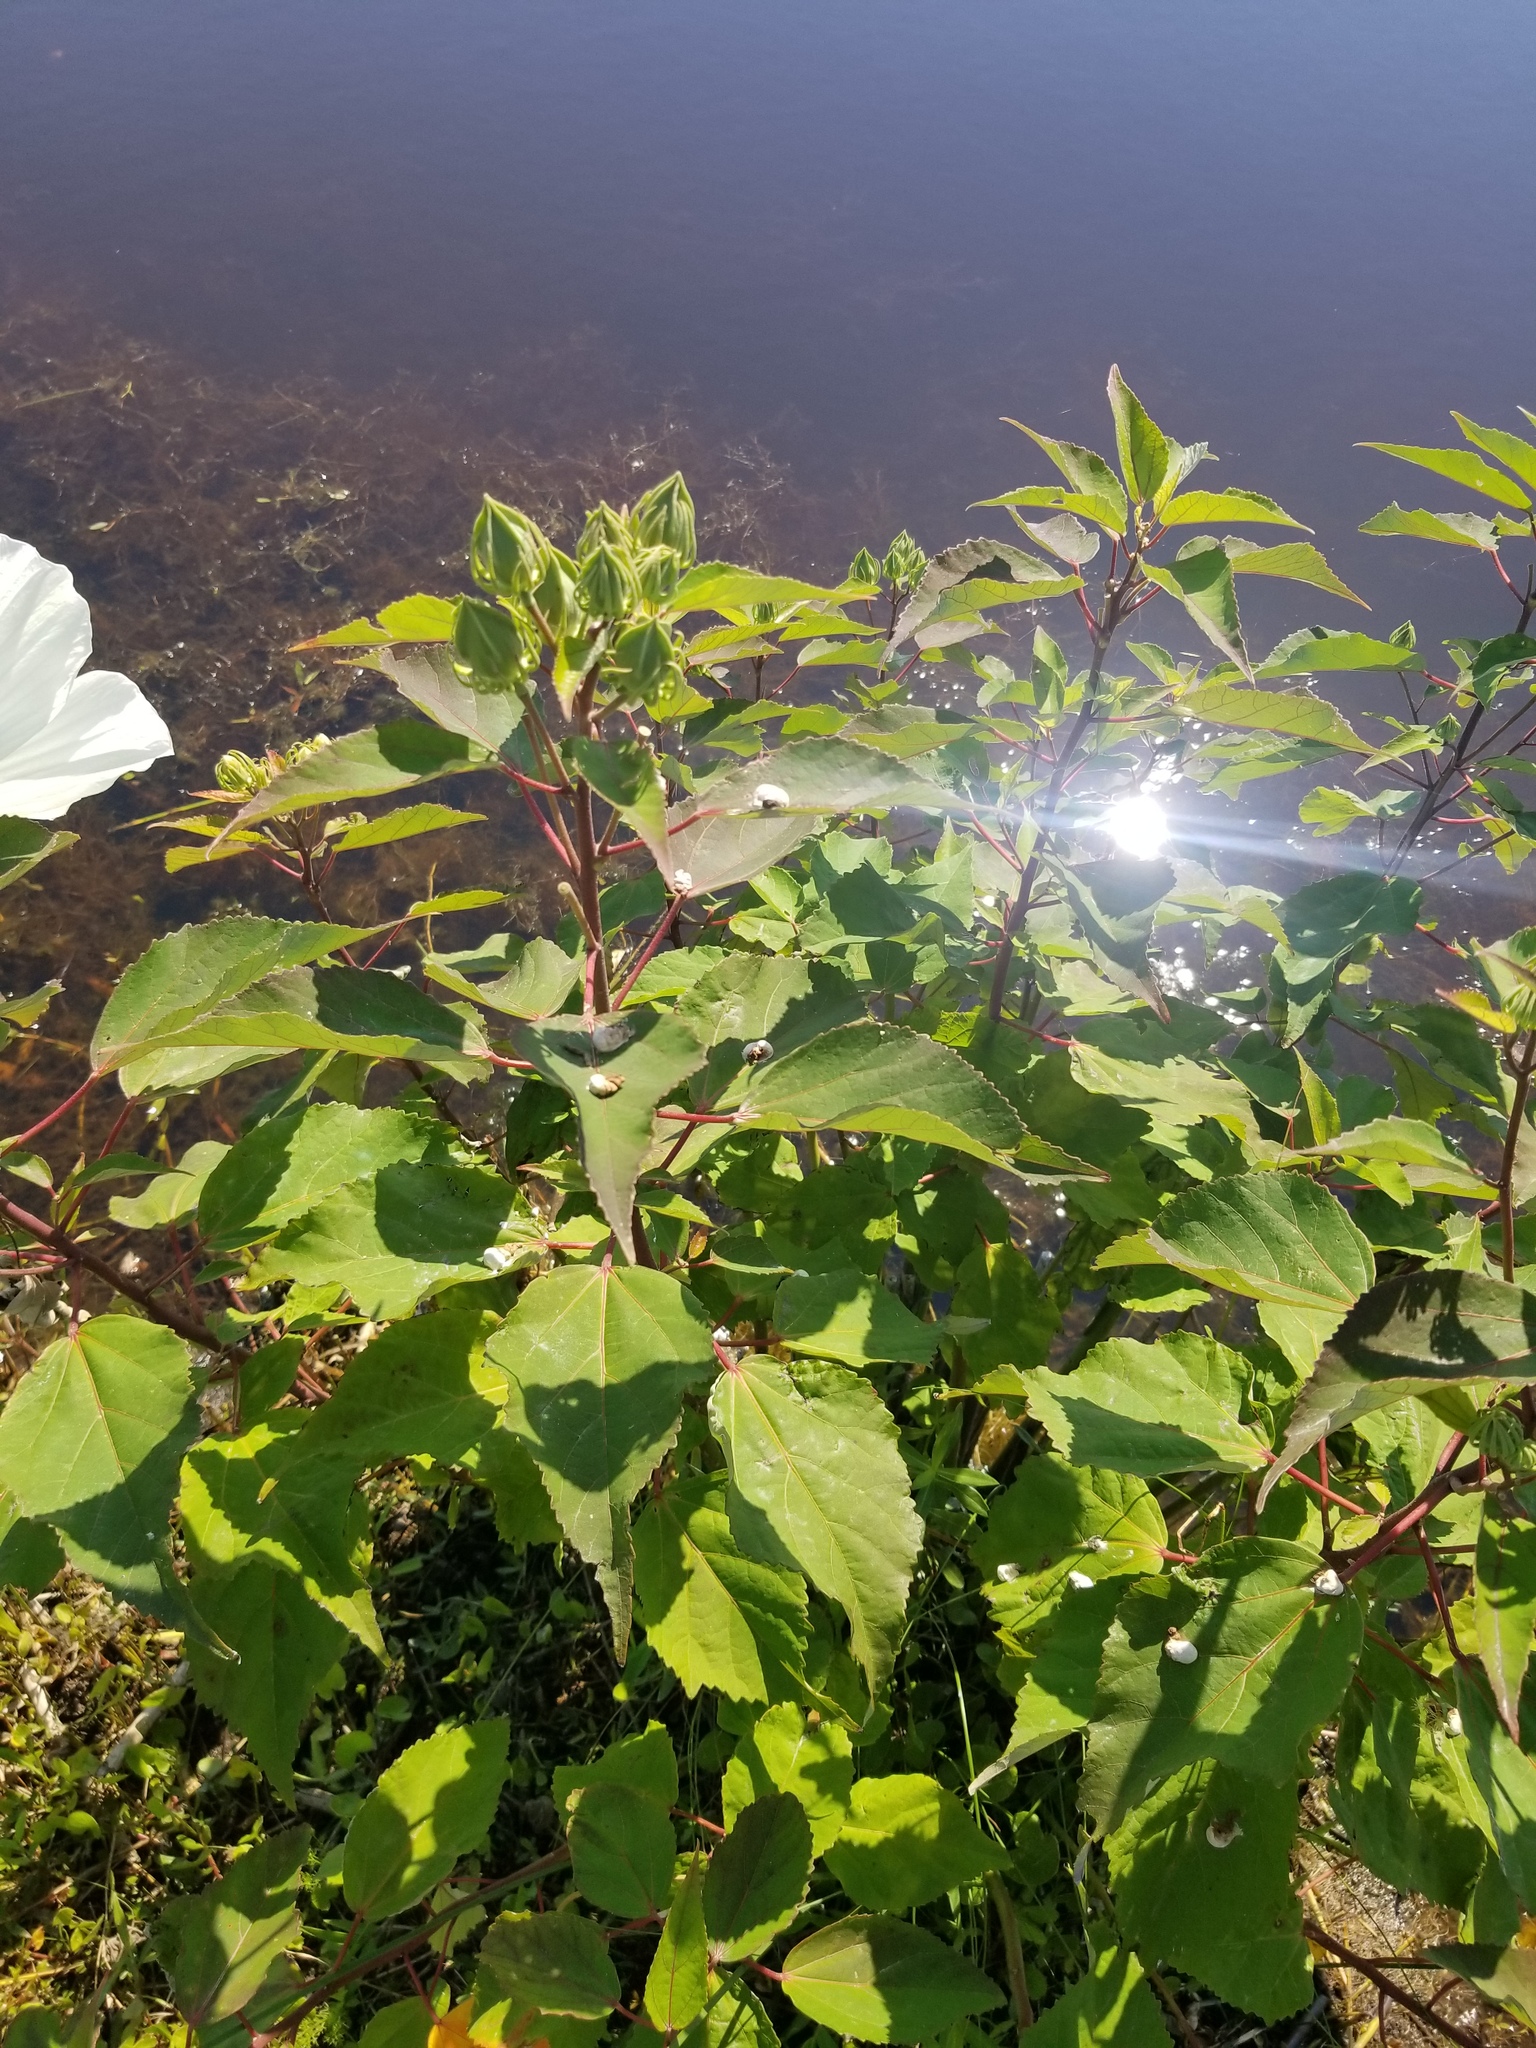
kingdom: Plantae
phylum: Tracheophyta
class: Magnoliopsida
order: Malvales
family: Malvaceae
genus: Hibiscus
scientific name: Hibiscus moscheutos
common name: Common rose-mallow
